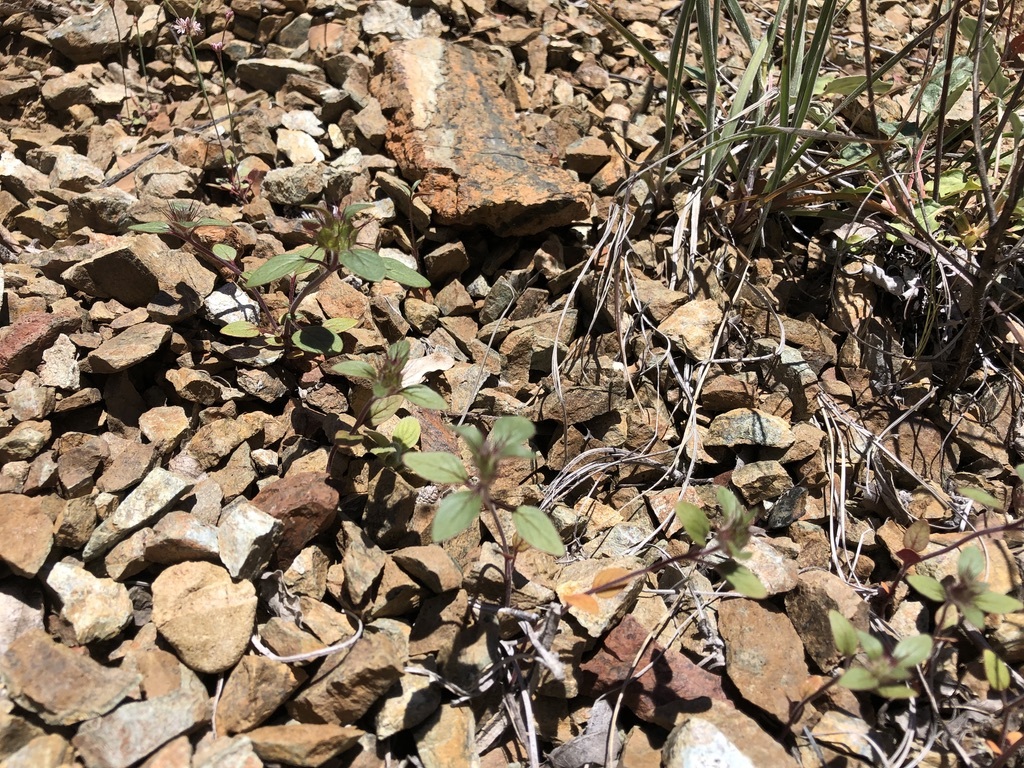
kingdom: Plantae
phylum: Tracheophyta
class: Magnoliopsida
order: Lamiales
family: Lamiaceae
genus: Acanthomintha
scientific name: Acanthomintha lanceolata
